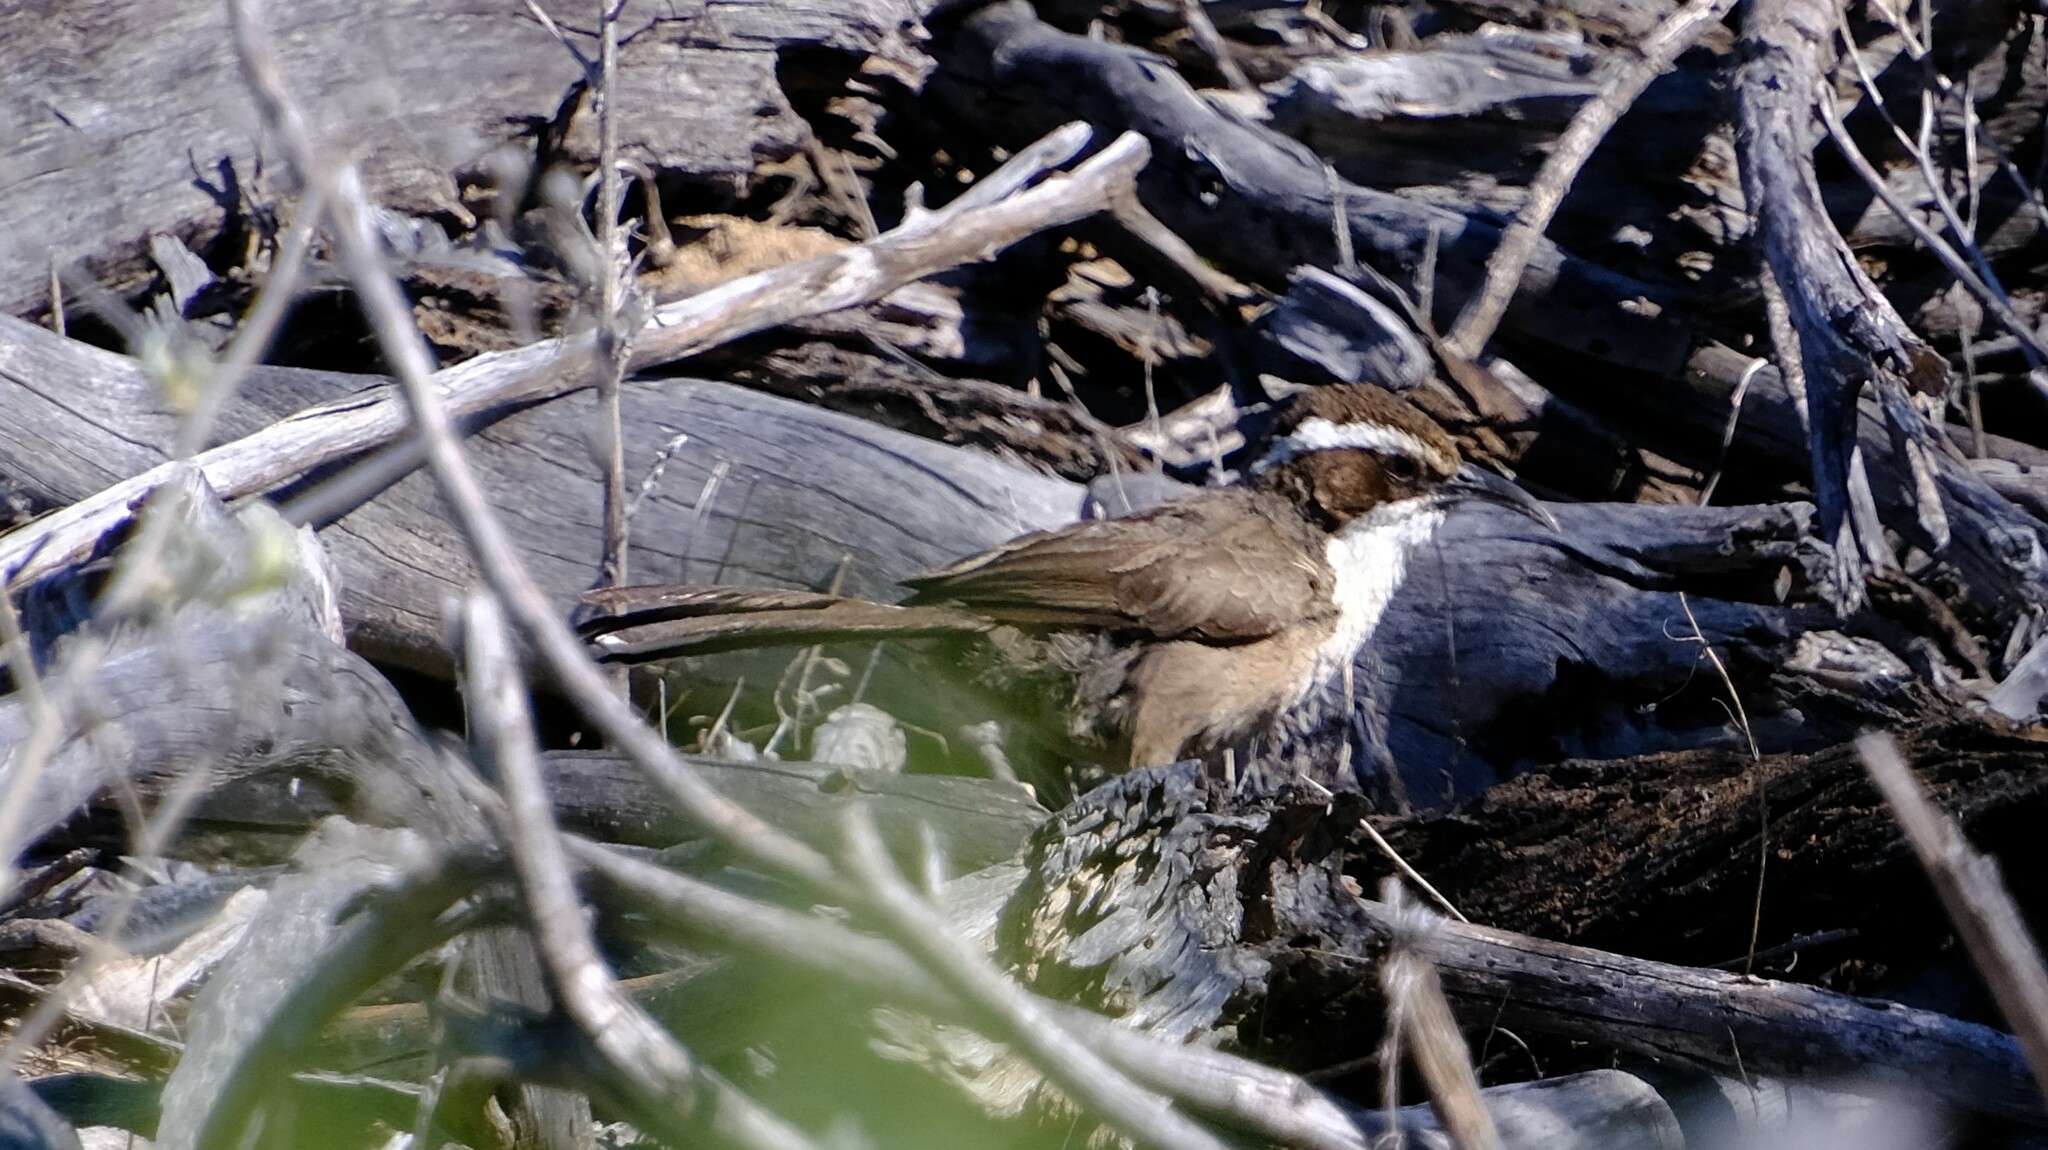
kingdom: Animalia
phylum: Chordata
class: Aves
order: Passeriformes
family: Pomatostomidae
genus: Pomatostomus
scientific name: Pomatostomus superciliosus
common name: White-browed babbler
